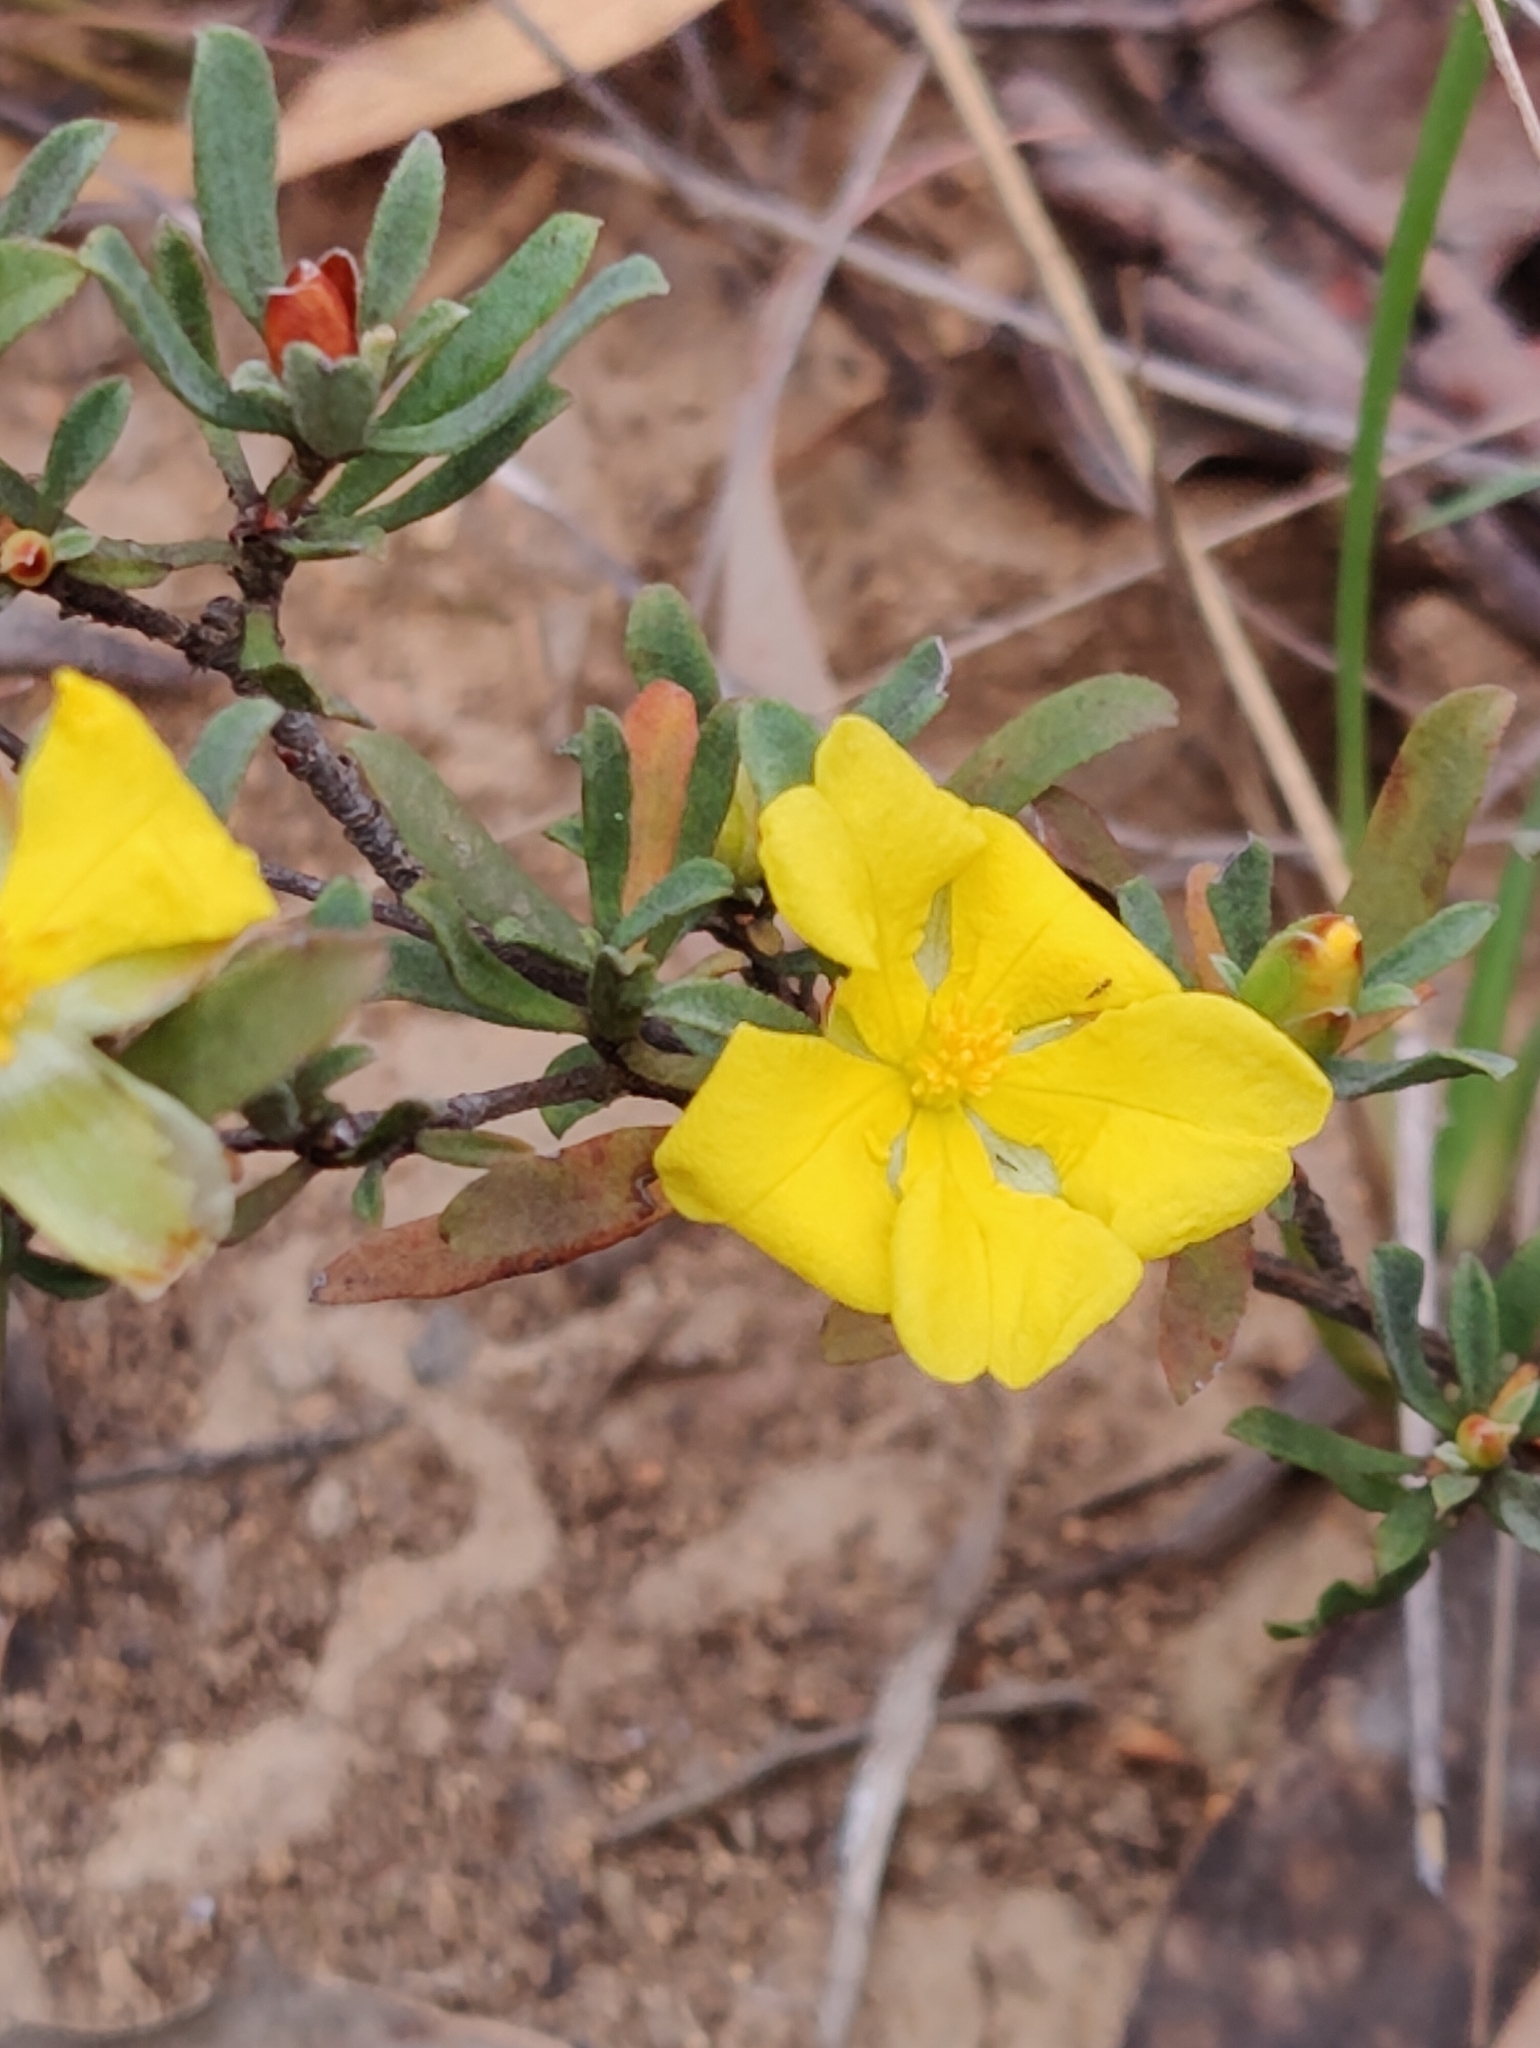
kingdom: Plantae
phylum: Tracheophyta
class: Magnoliopsida
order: Dilleniales
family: Dilleniaceae
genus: Hibbertia
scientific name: Hibbertia obtusifolia
